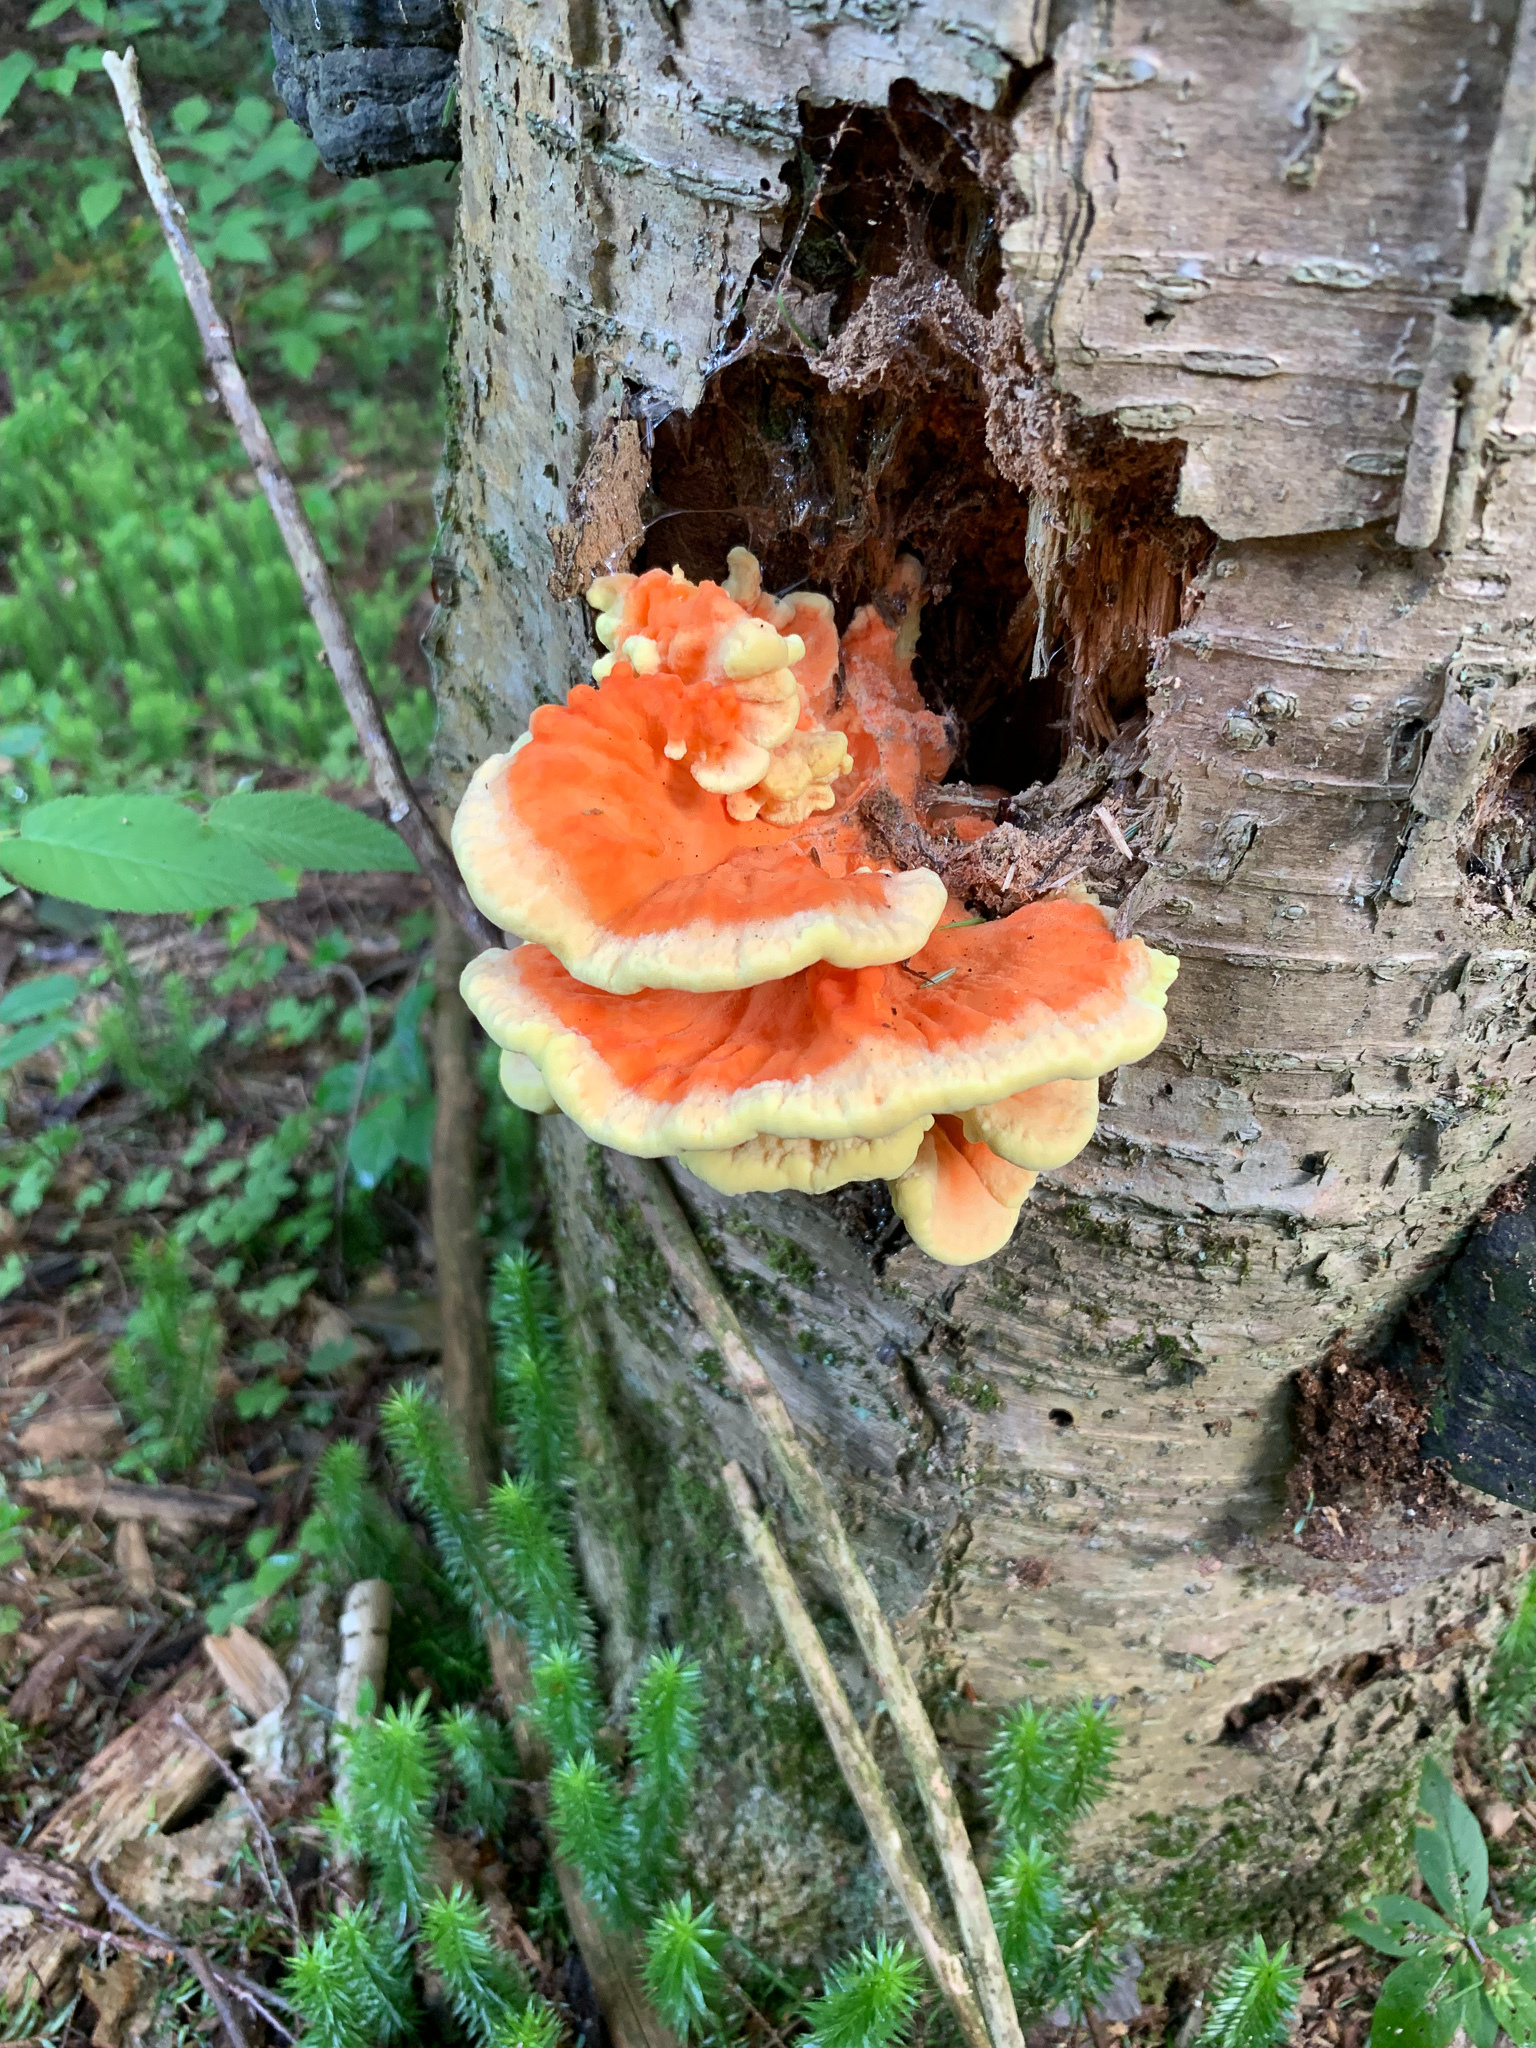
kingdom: Fungi
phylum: Basidiomycota
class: Agaricomycetes
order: Polyporales
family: Laetiporaceae
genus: Laetiporus
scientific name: Laetiporus sulphureus
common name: Chicken of the woods
